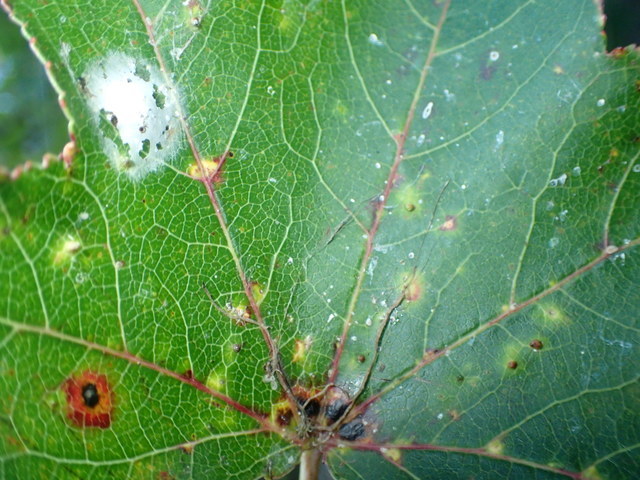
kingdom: Animalia
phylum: Arthropoda
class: Insecta
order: Hemiptera
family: Diaspididae
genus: Diaspidiotus
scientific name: Diaspidiotus liquidambaris
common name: Sweet gum scale
